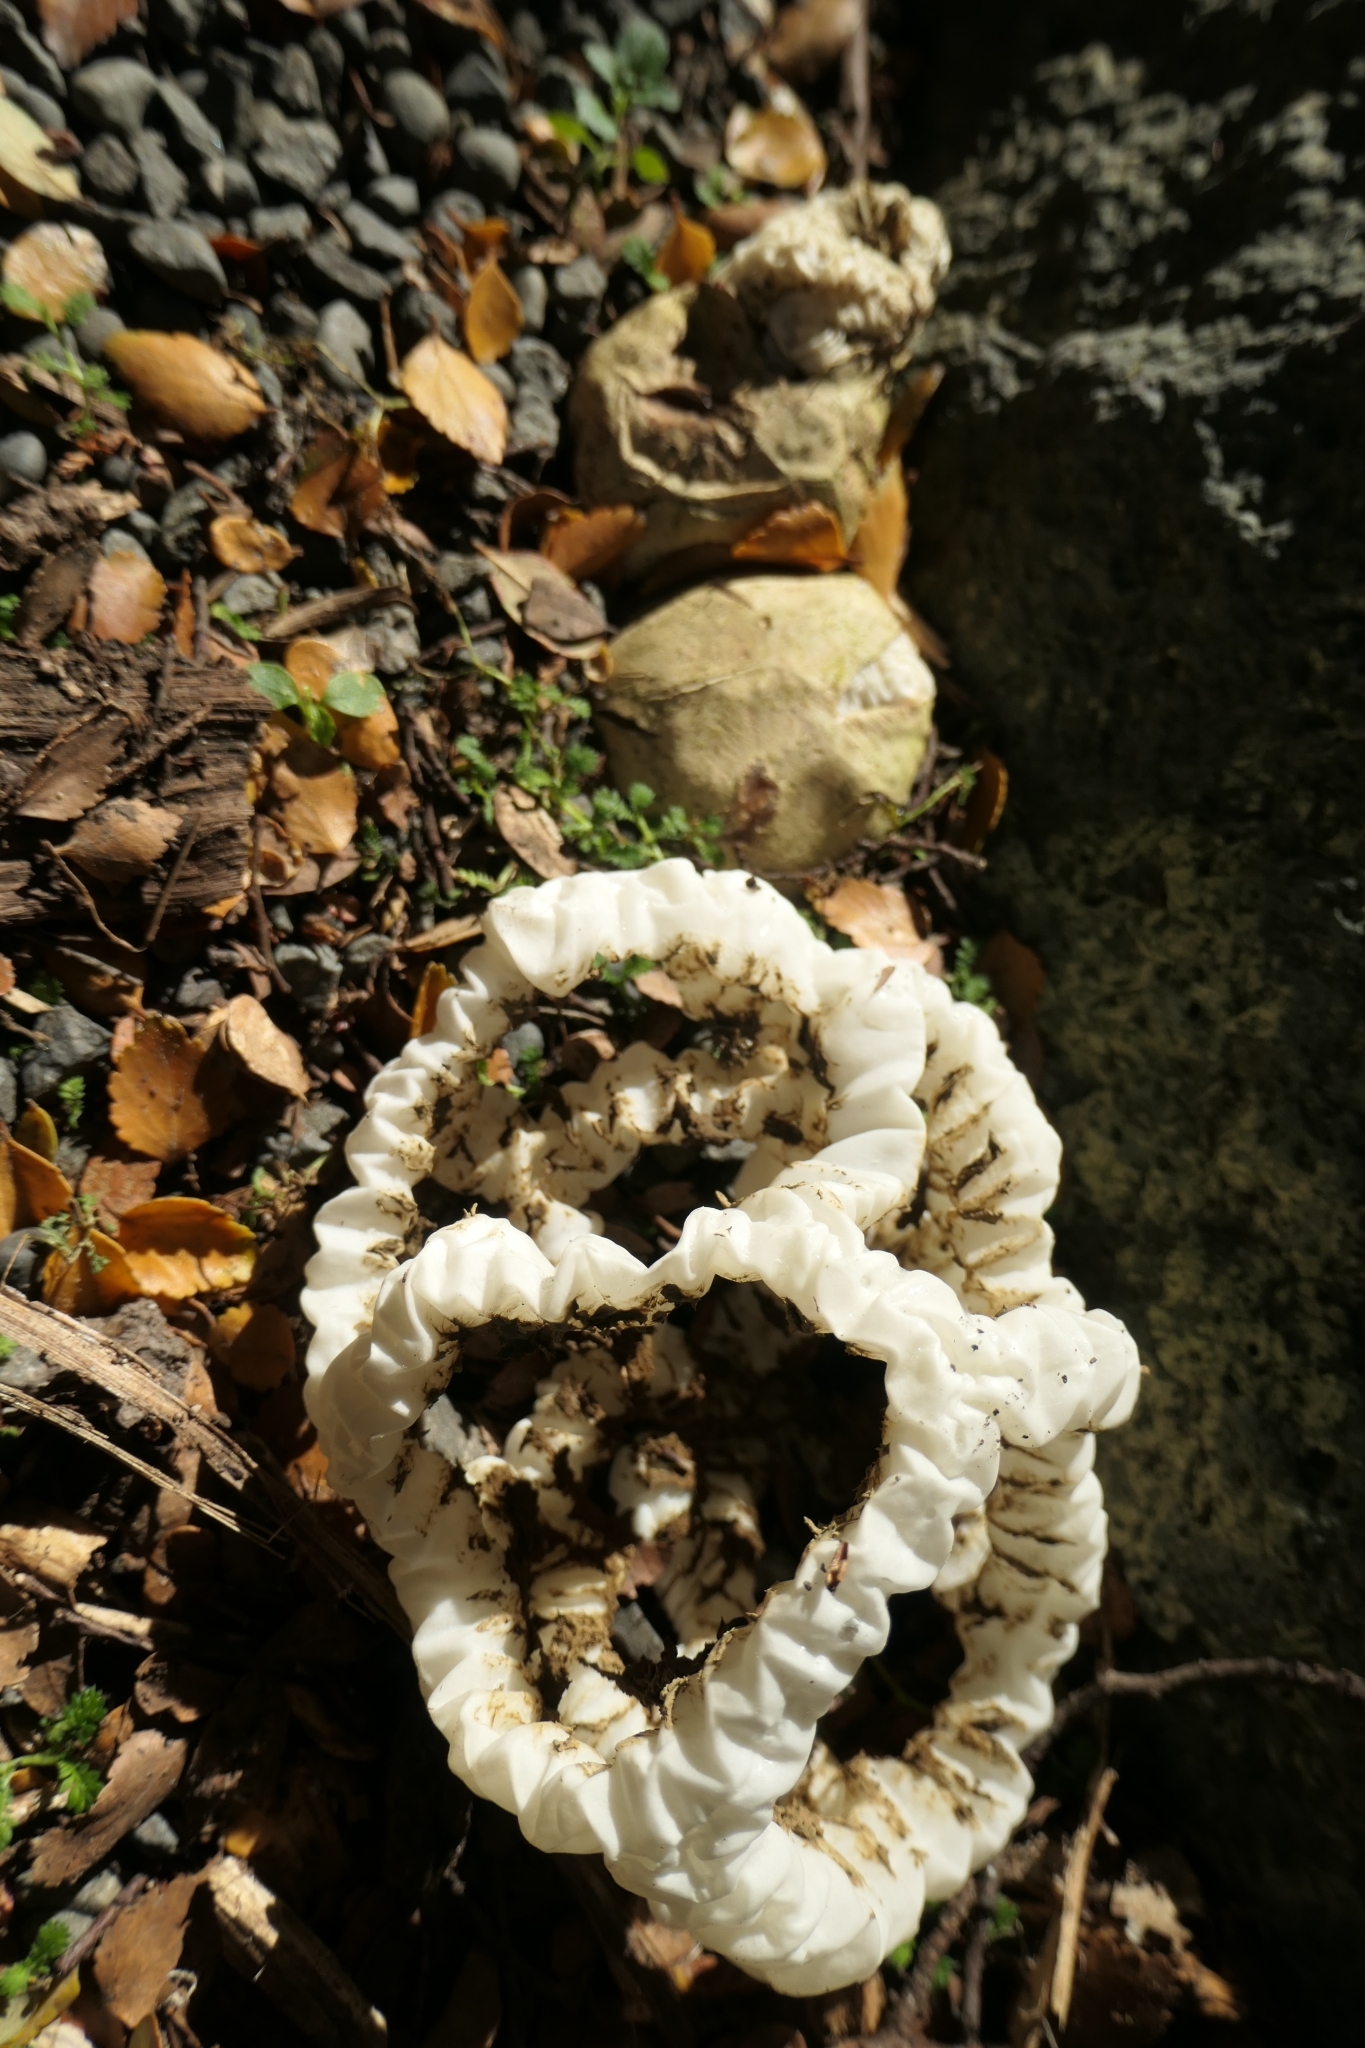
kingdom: Fungi
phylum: Basidiomycota
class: Agaricomycetes
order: Phallales
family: Phallaceae
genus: Ileodictyon
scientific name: Ileodictyon cibarium
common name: Basket fungus
